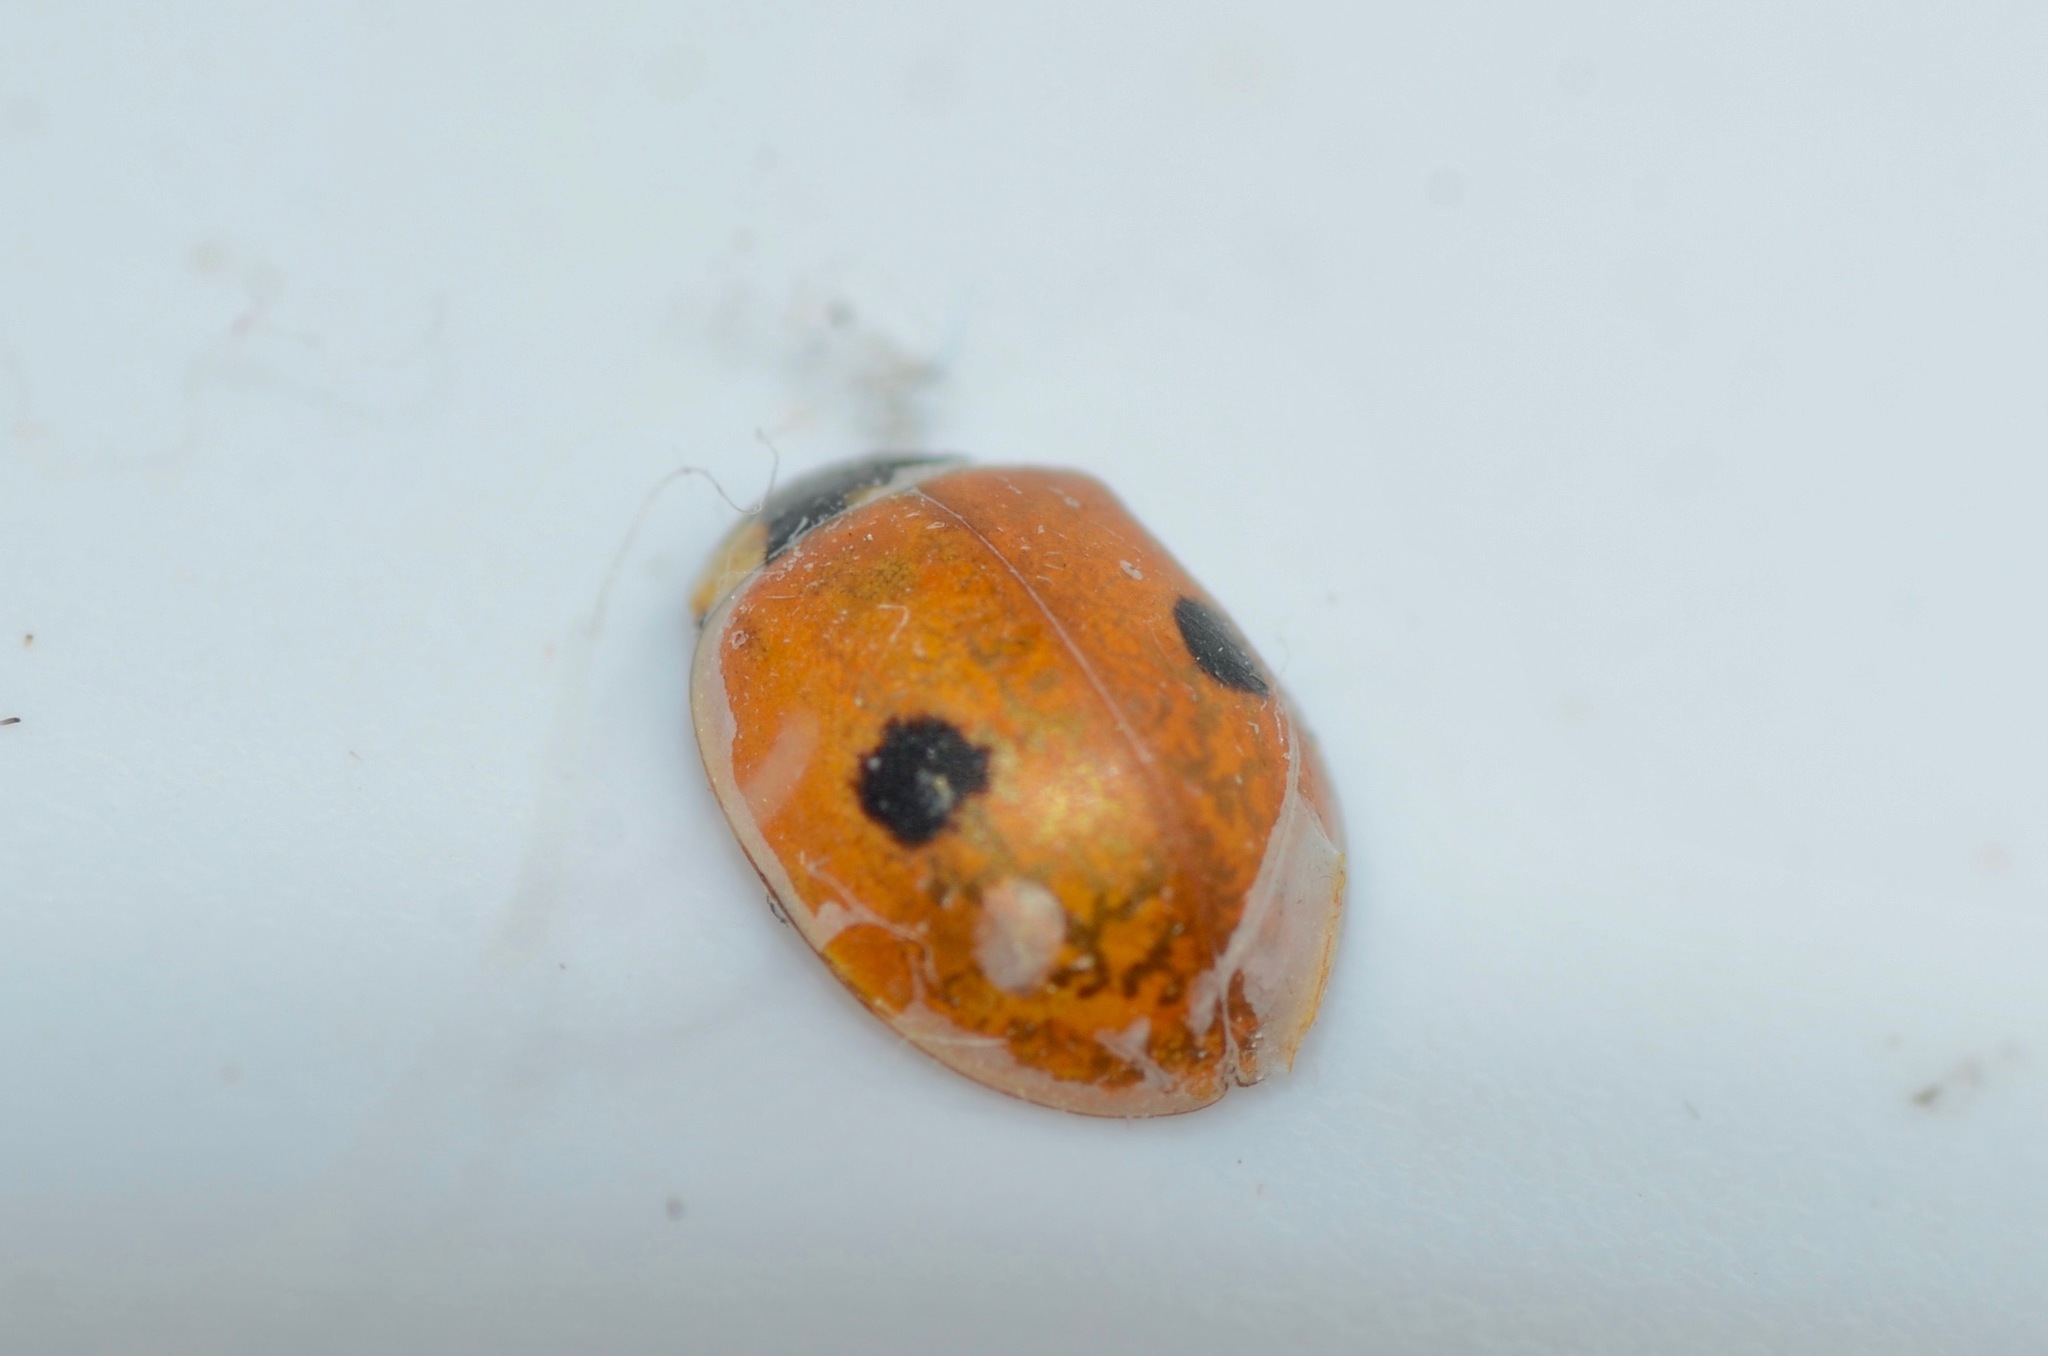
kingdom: Animalia
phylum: Arthropoda
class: Insecta
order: Coleoptera
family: Coccinellidae
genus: Adalia
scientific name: Adalia bipunctata
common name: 2-spot ladybird
